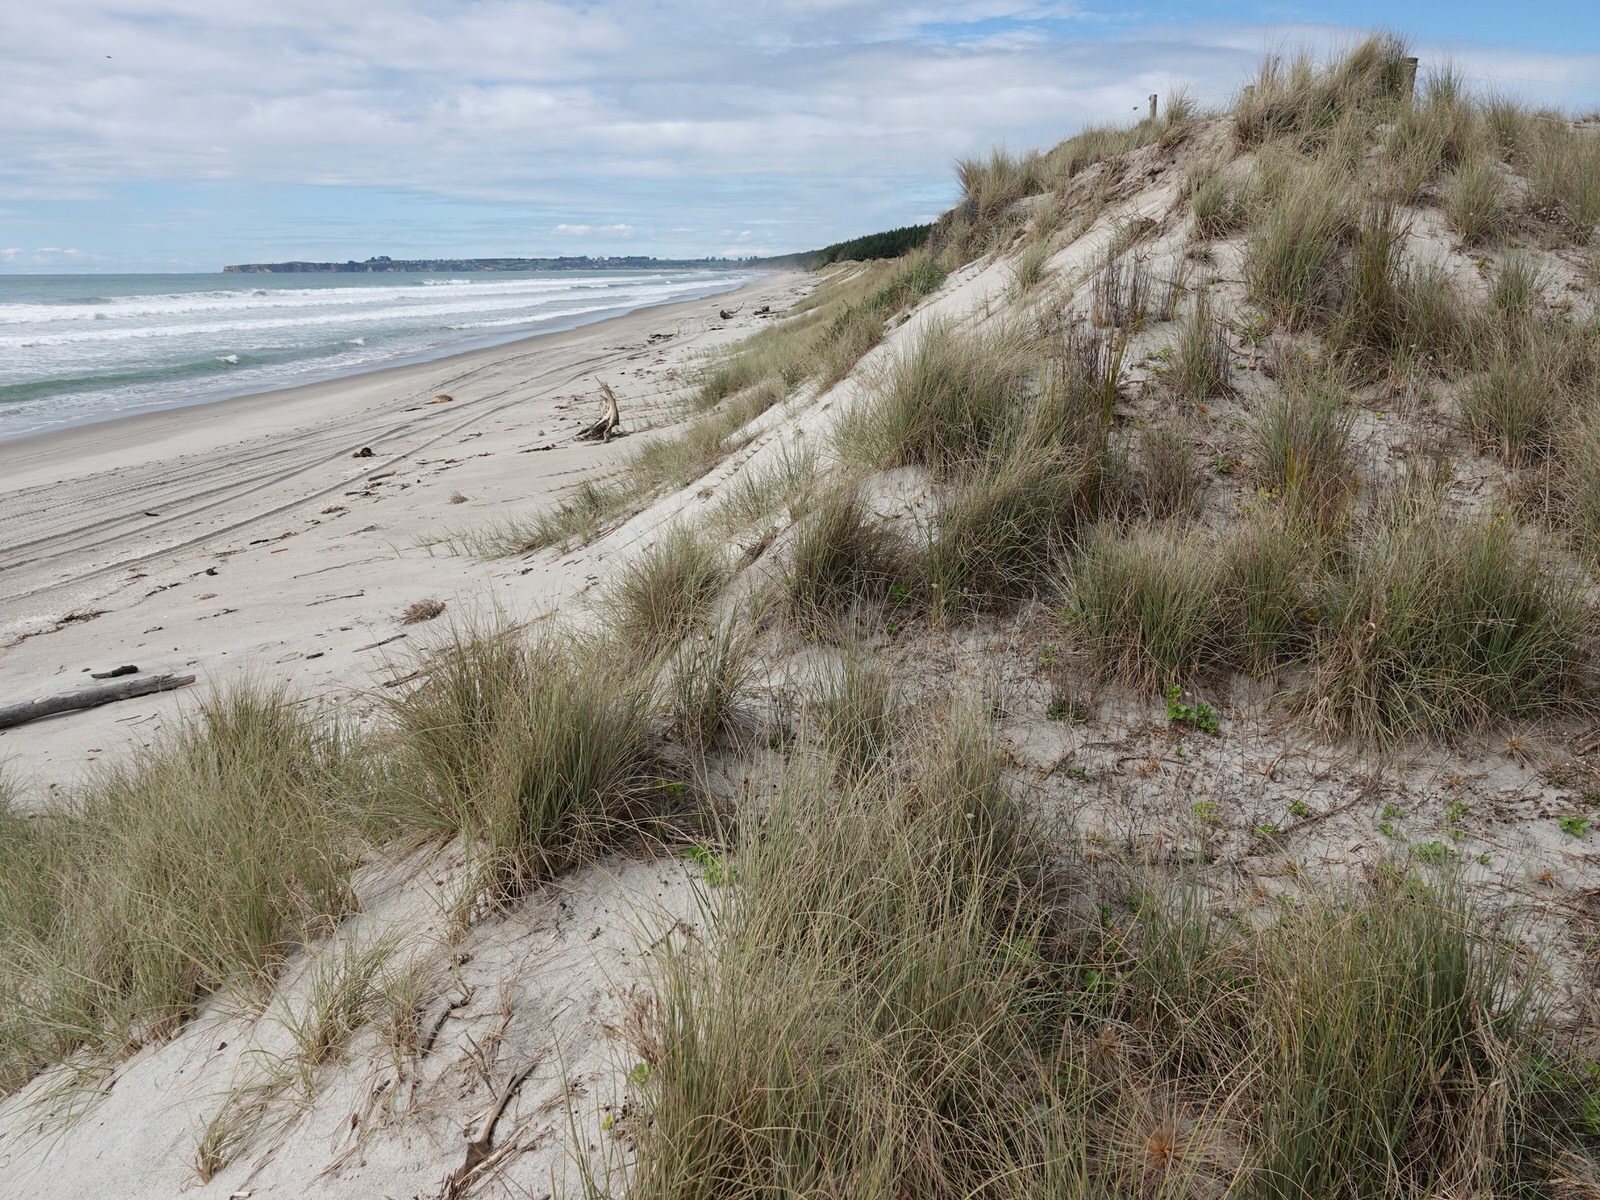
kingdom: Animalia
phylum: Arthropoda
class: Insecta
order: Hymenoptera
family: Eumenidae
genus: Polistes
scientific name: Polistes chinensis
